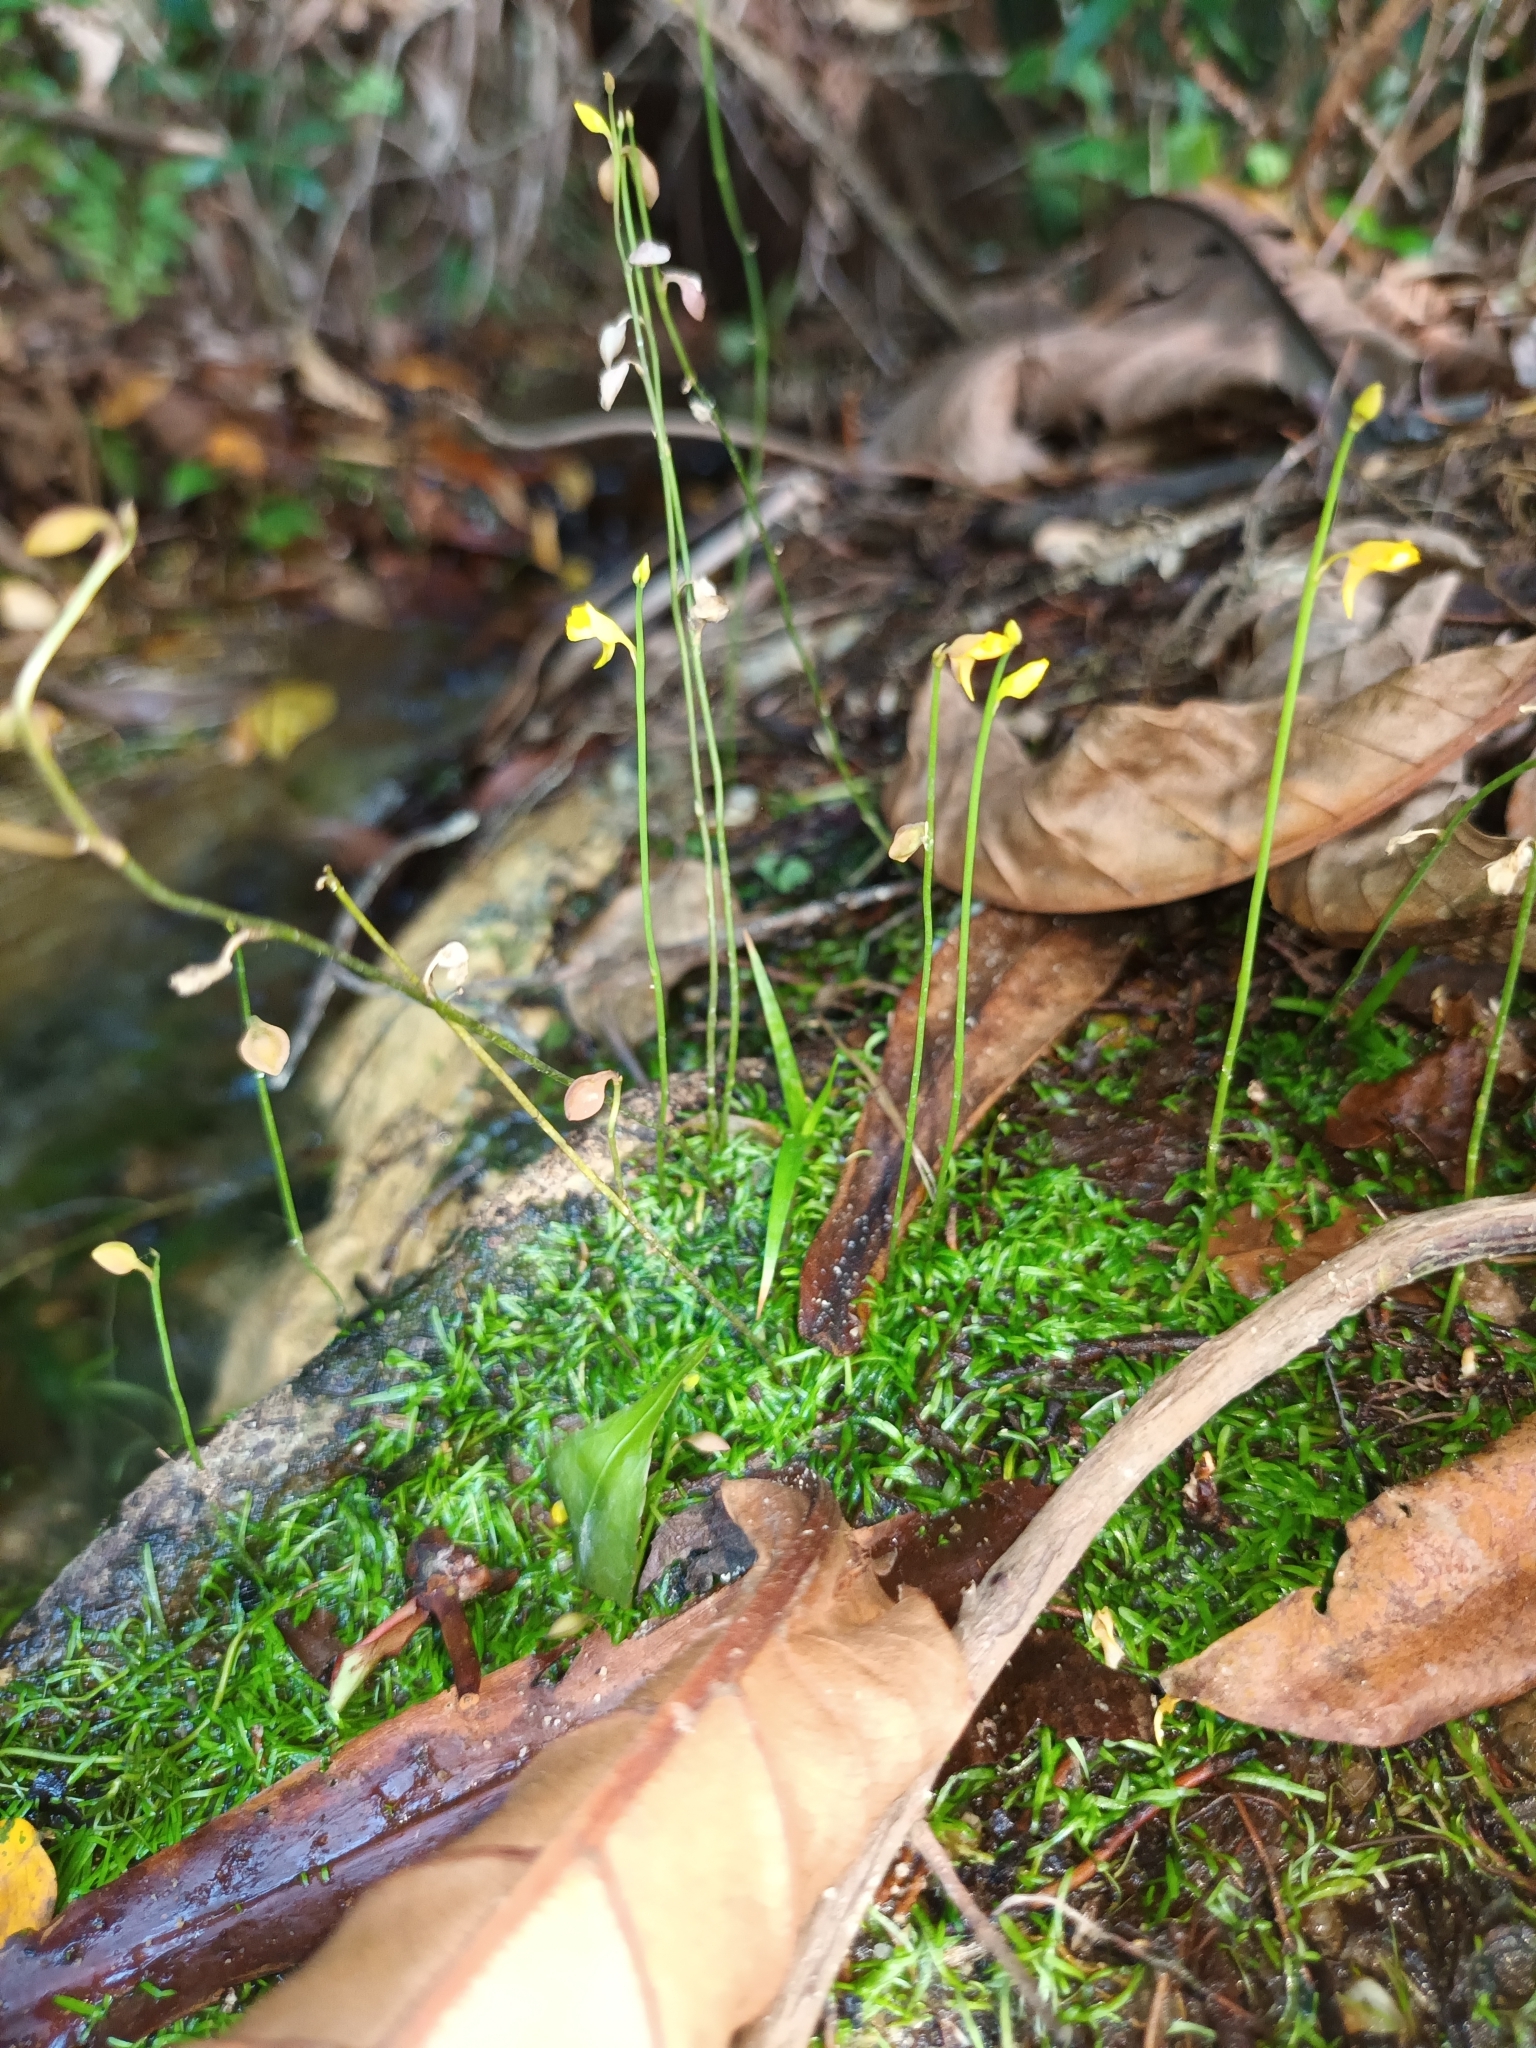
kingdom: Plantae
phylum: Tracheophyta
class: Magnoliopsida
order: Lamiales
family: Lentibulariaceae
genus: Utricularia
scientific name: Utricularia bifida
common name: Bifid bladderwort
